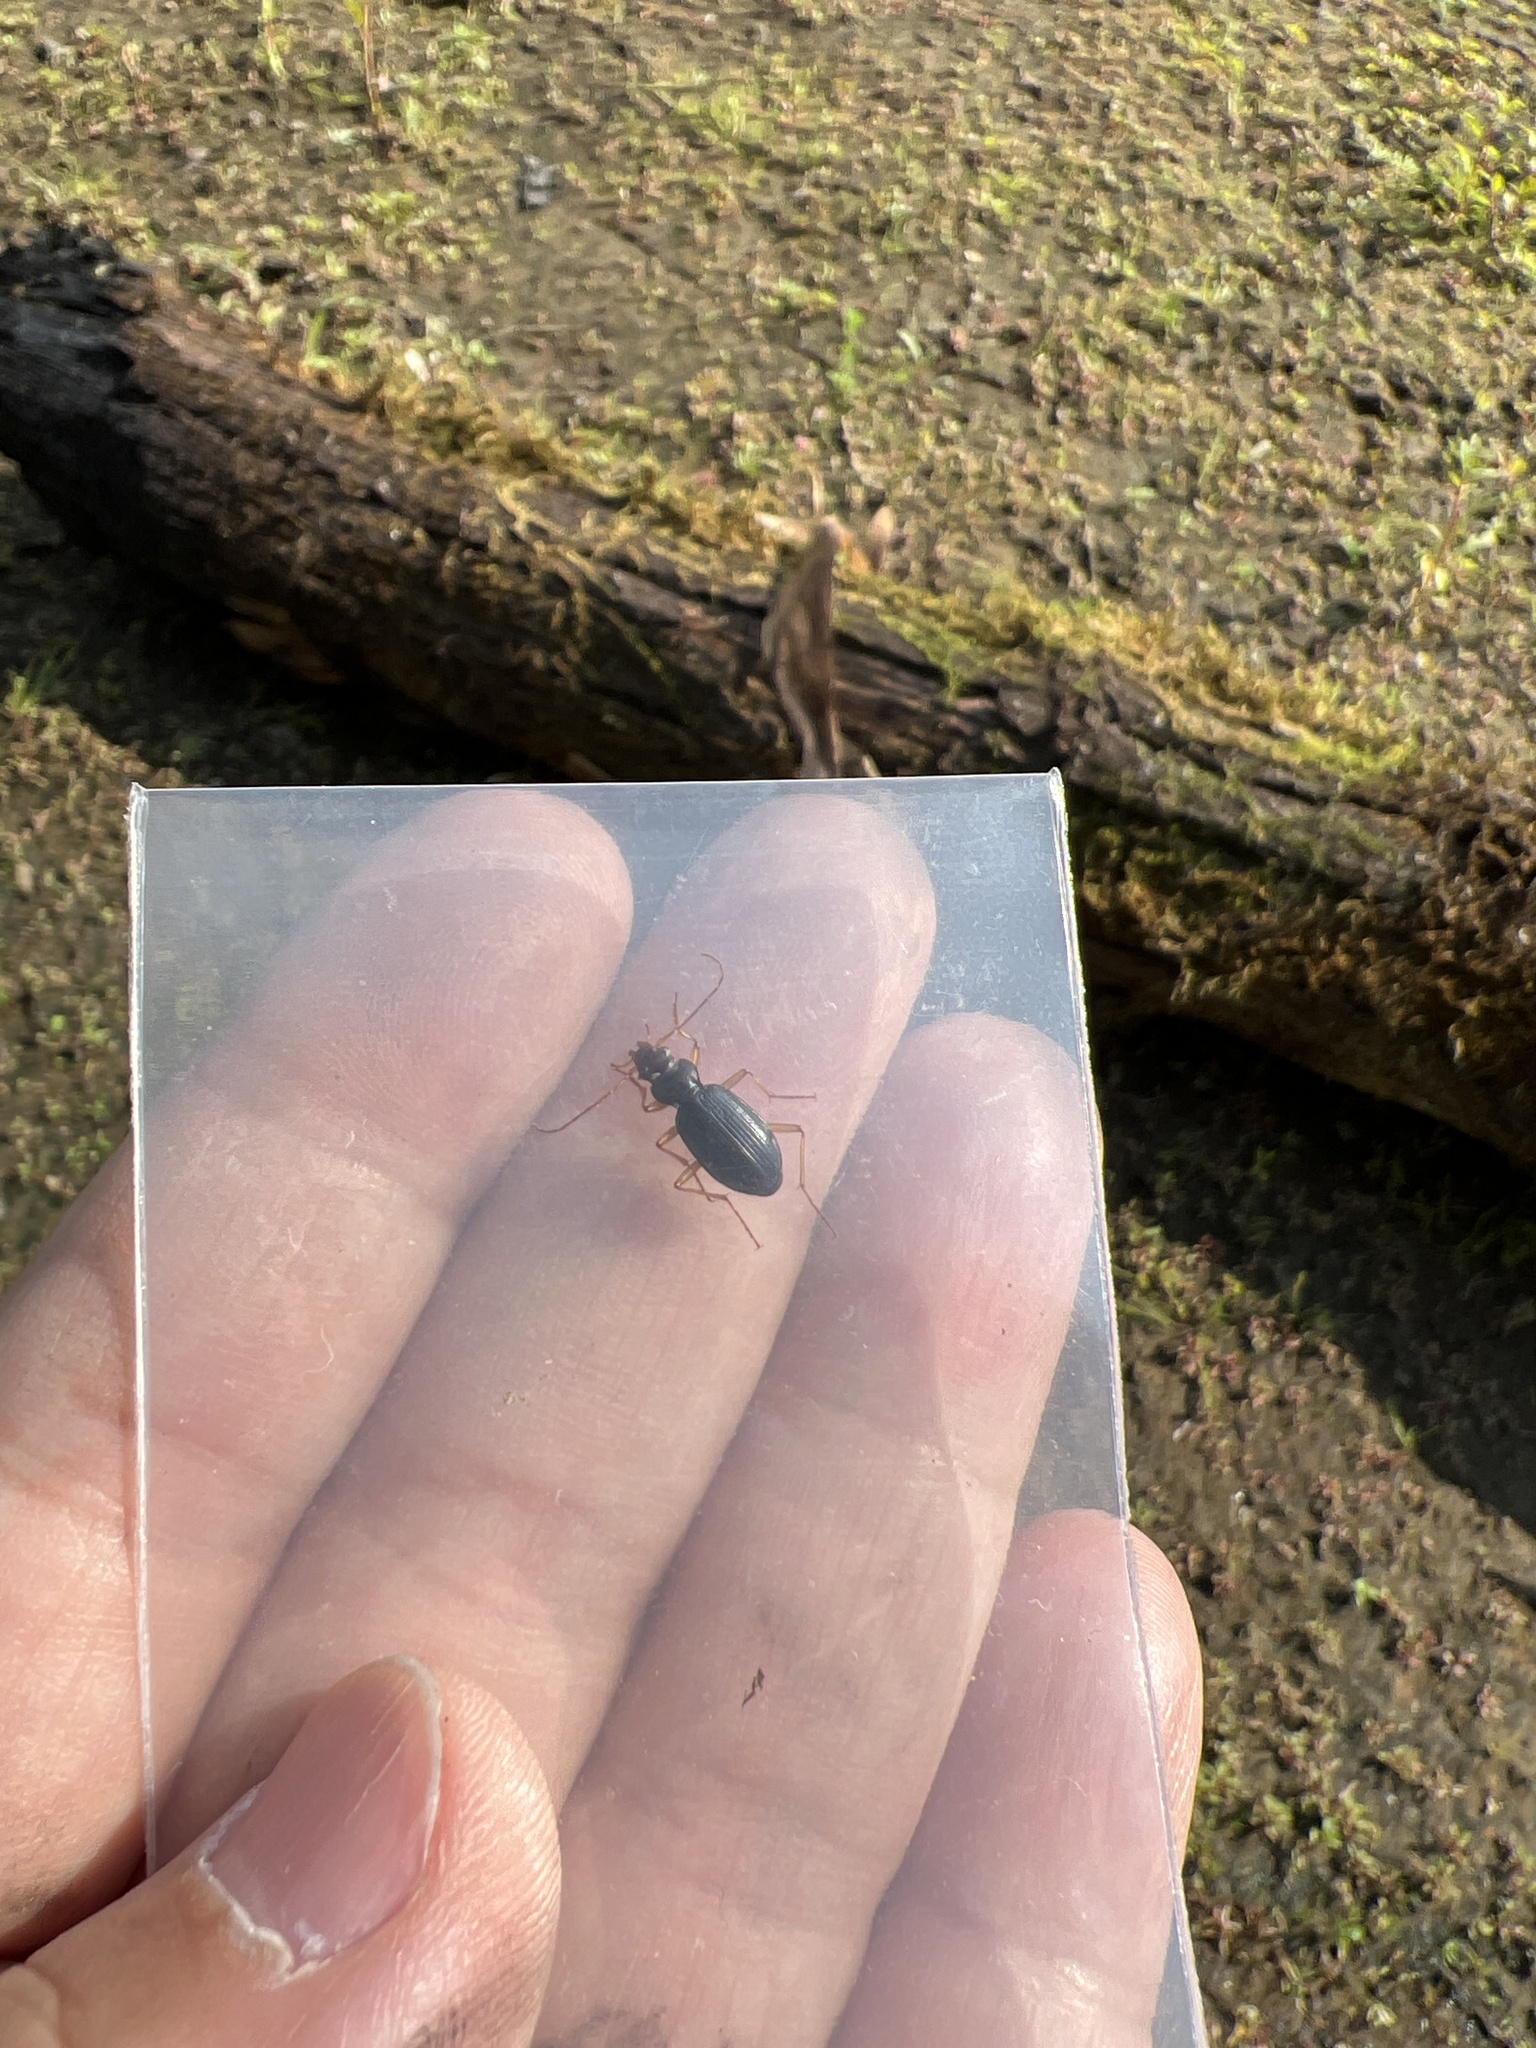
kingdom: Animalia
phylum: Arthropoda
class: Insecta
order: Coleoptera
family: Carabidae
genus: Nebria
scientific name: Nebria eschscholtzii
